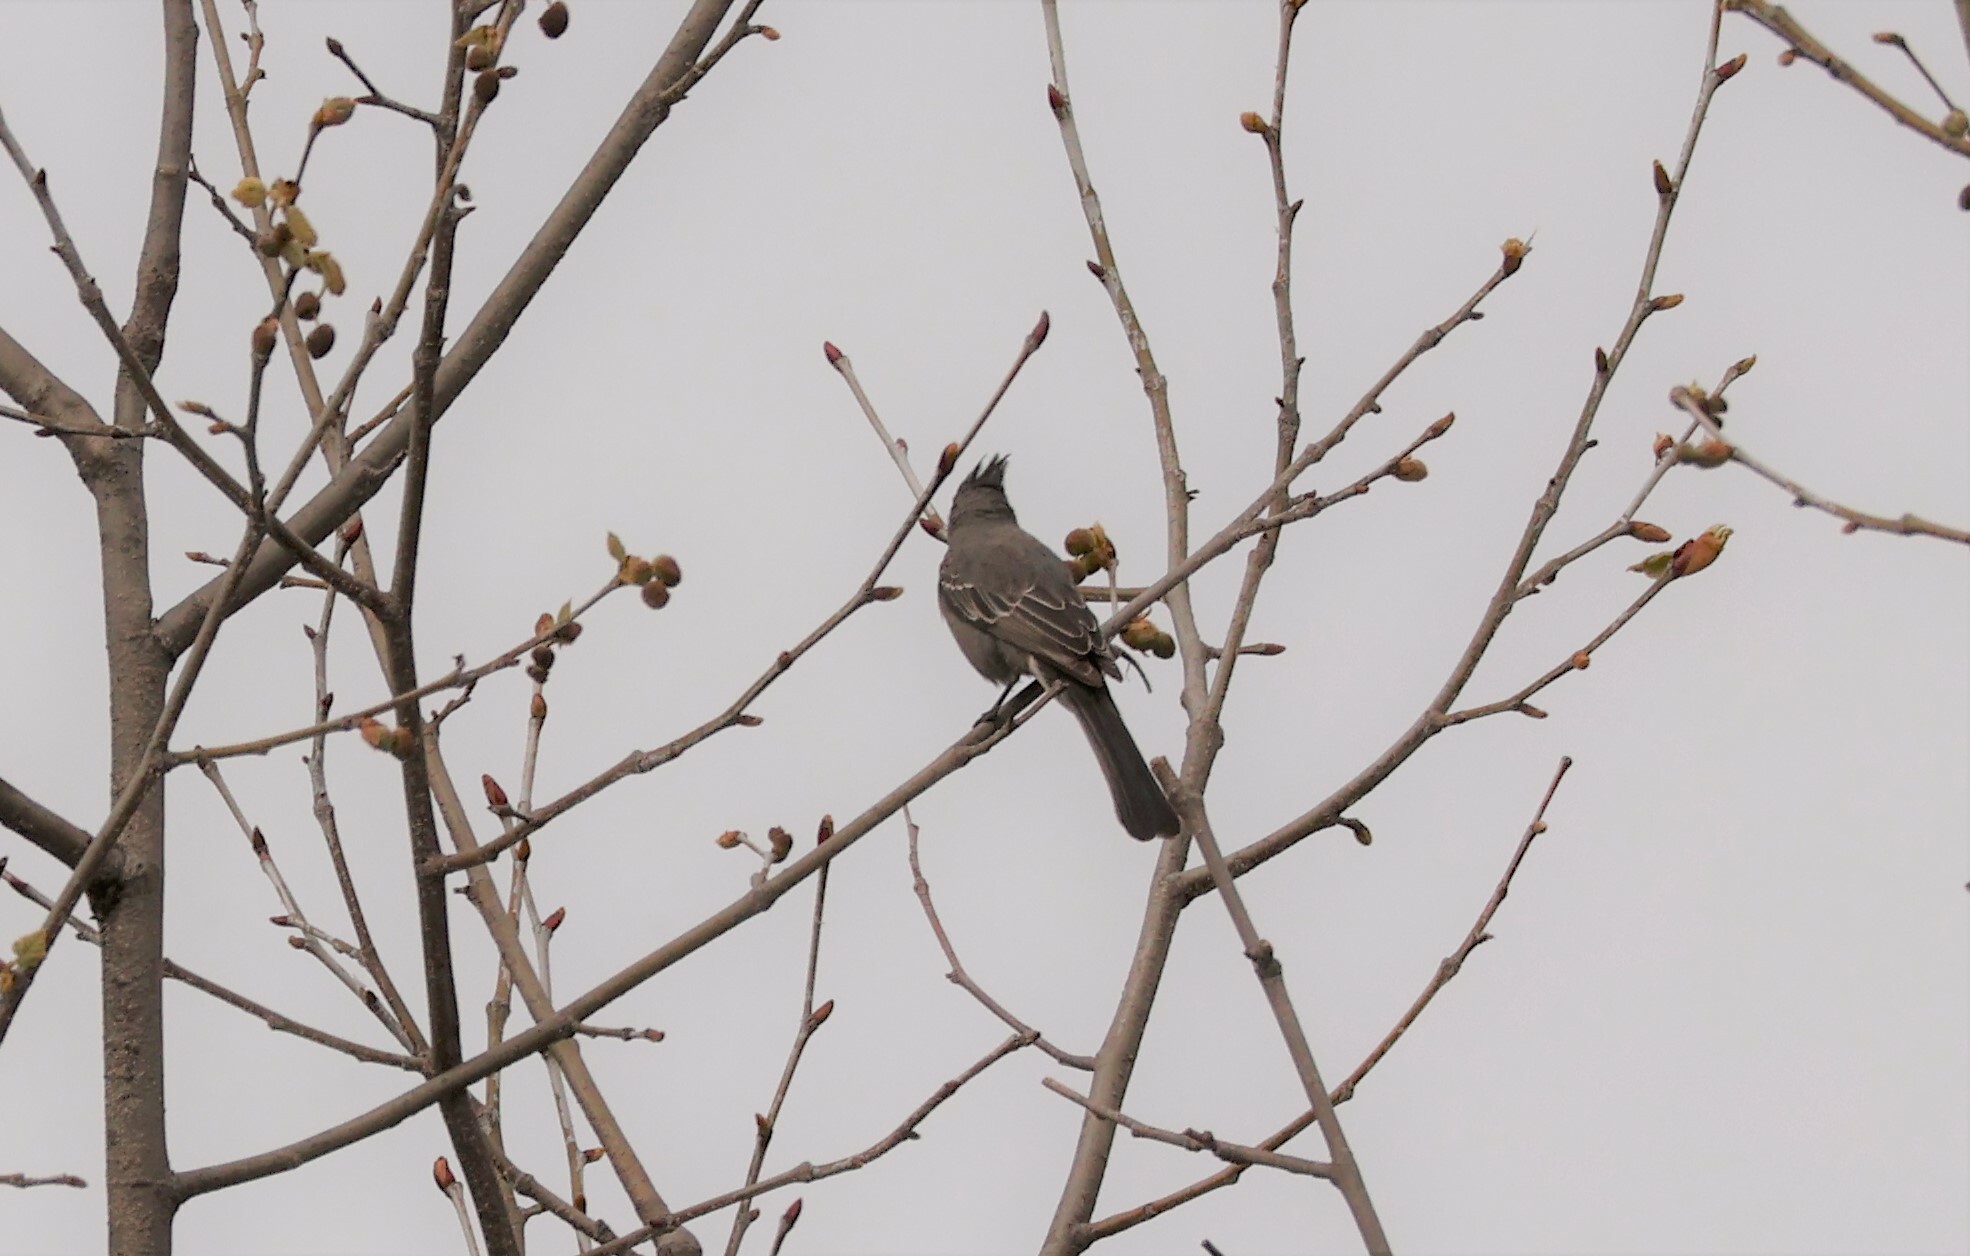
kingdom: Animalia
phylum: Chordata
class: Aves
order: Passeriformes
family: Ptilogonatidae
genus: Phainopepla
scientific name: Phainopepla nitens
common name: Phainopepla
